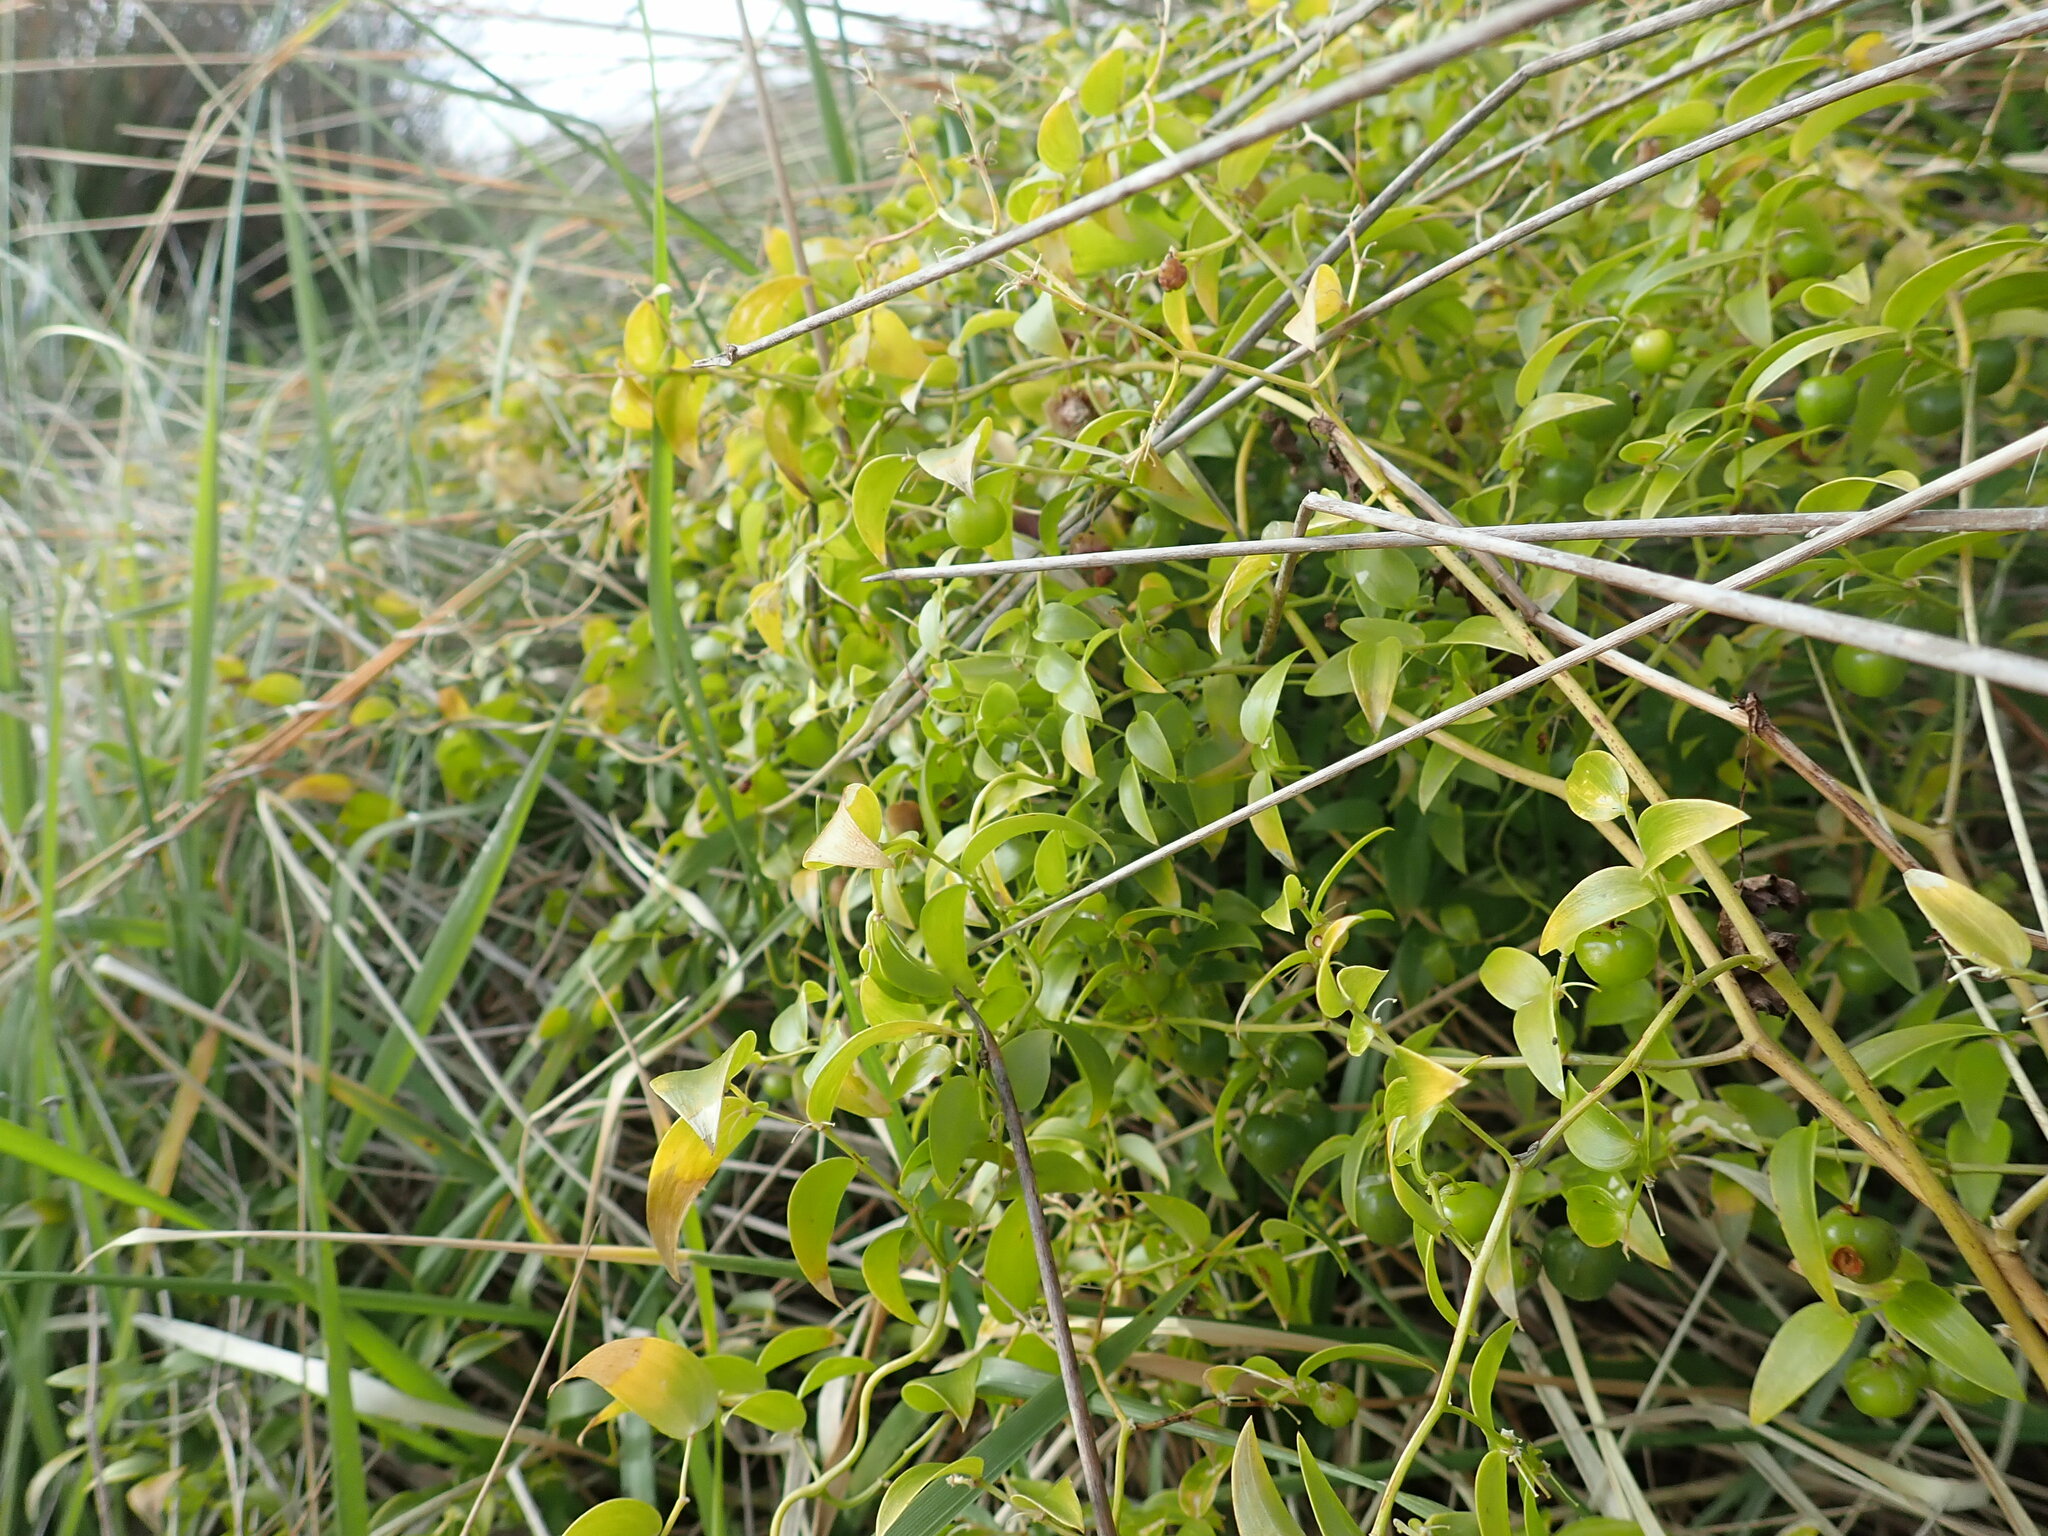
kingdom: Plantae
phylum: Tracheophyta
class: Liliopsida
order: Asparagales
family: Asparagaceae
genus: Asparagus
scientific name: Asparagus asparagoides
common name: African asparagus fern
